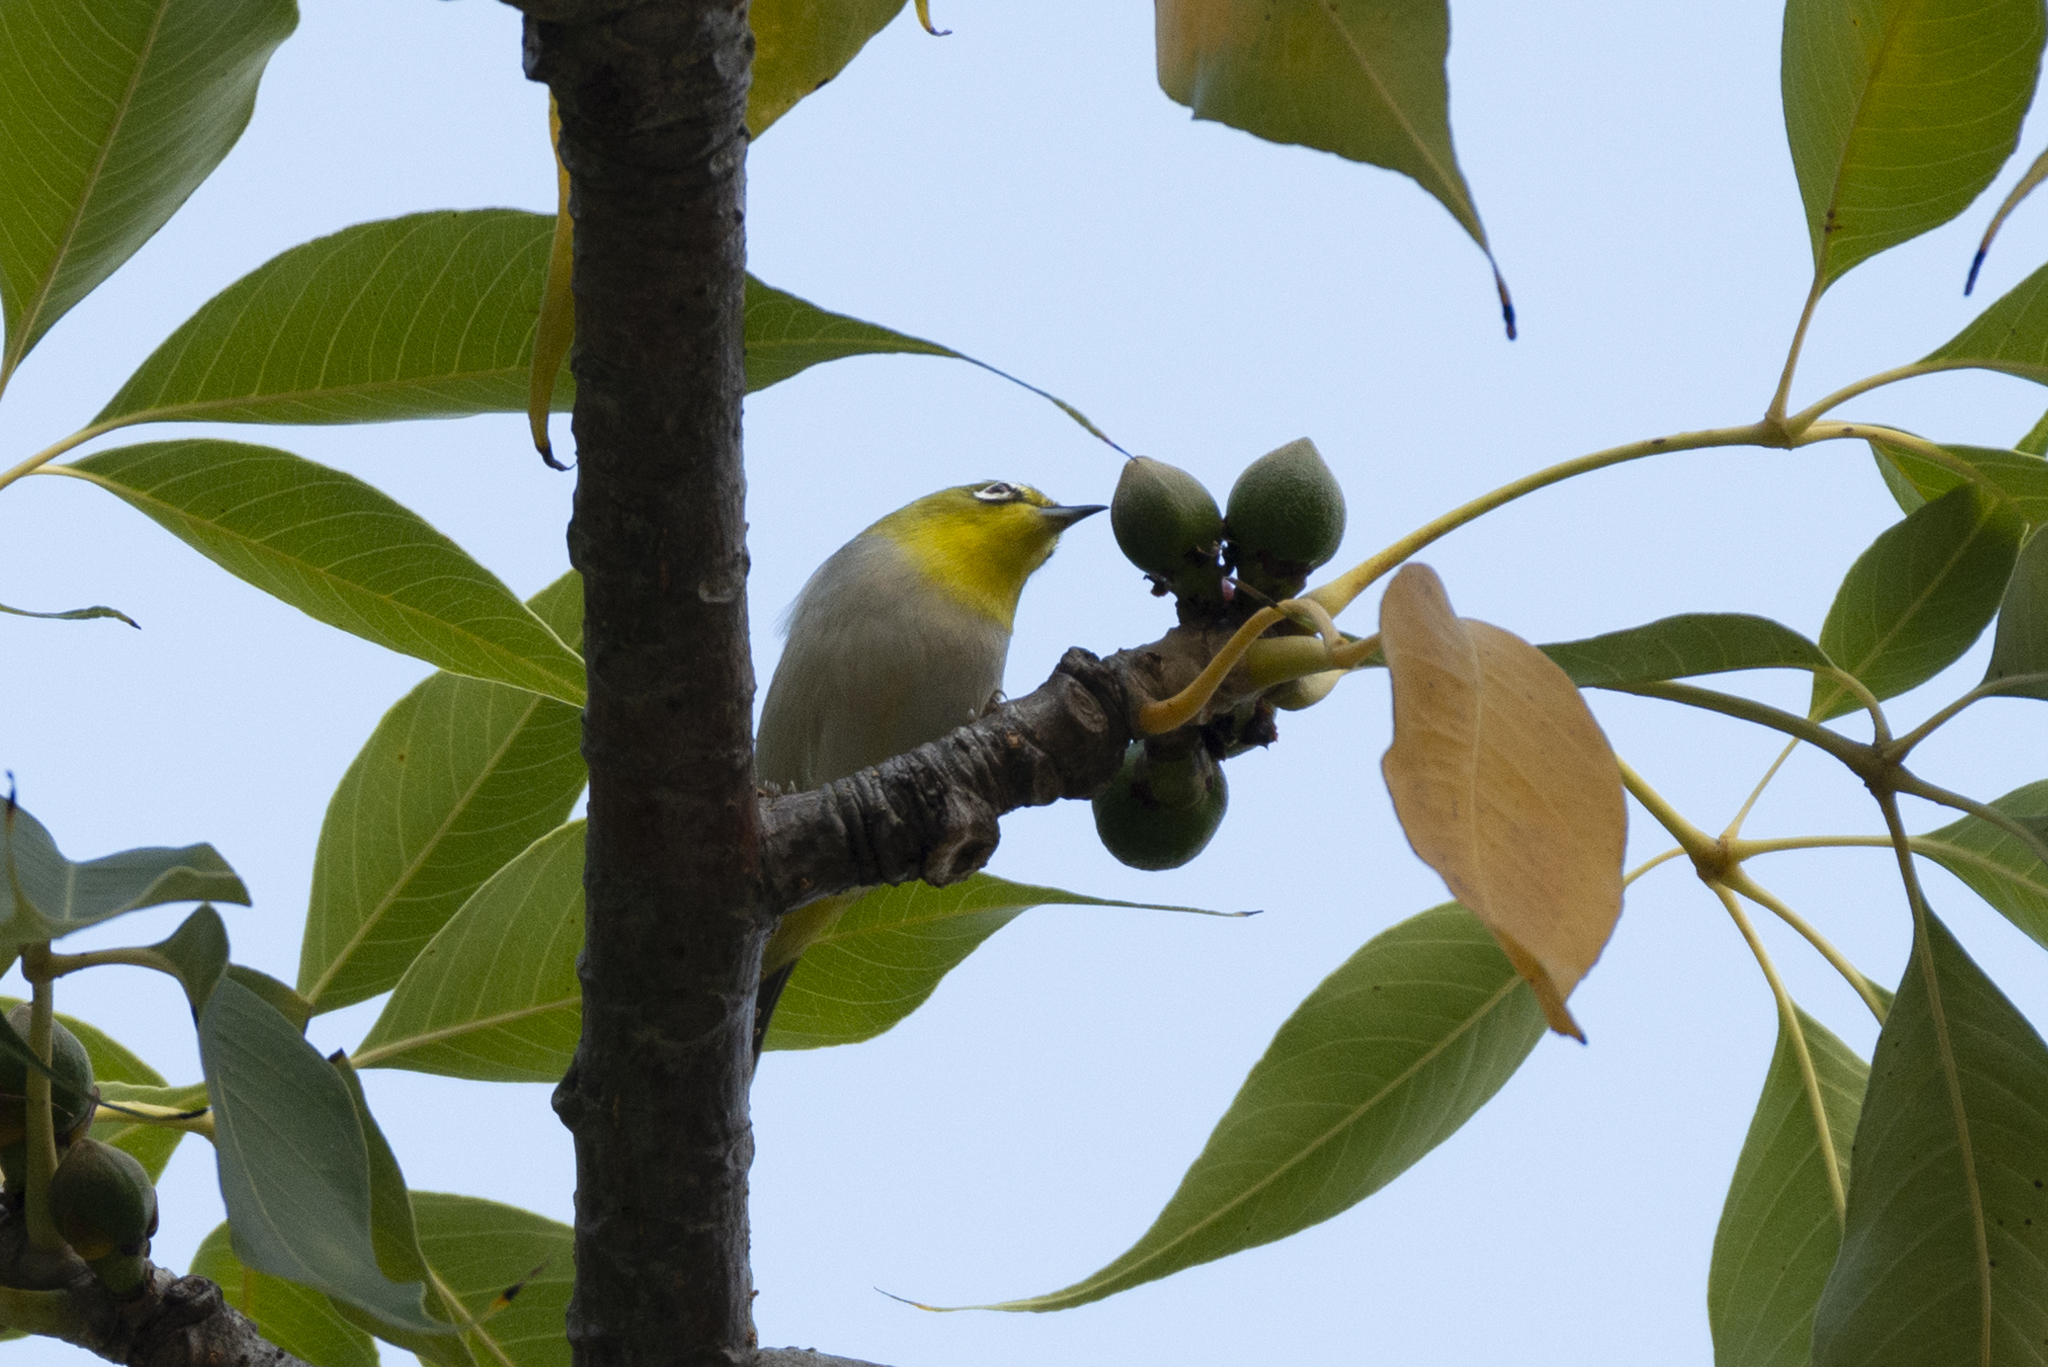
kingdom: Animalia
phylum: Chordata
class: Aves
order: Passeriformes
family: Zosteropidae
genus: Zosterops
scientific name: Zosterops simplex
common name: Swinhoe's white-eye
